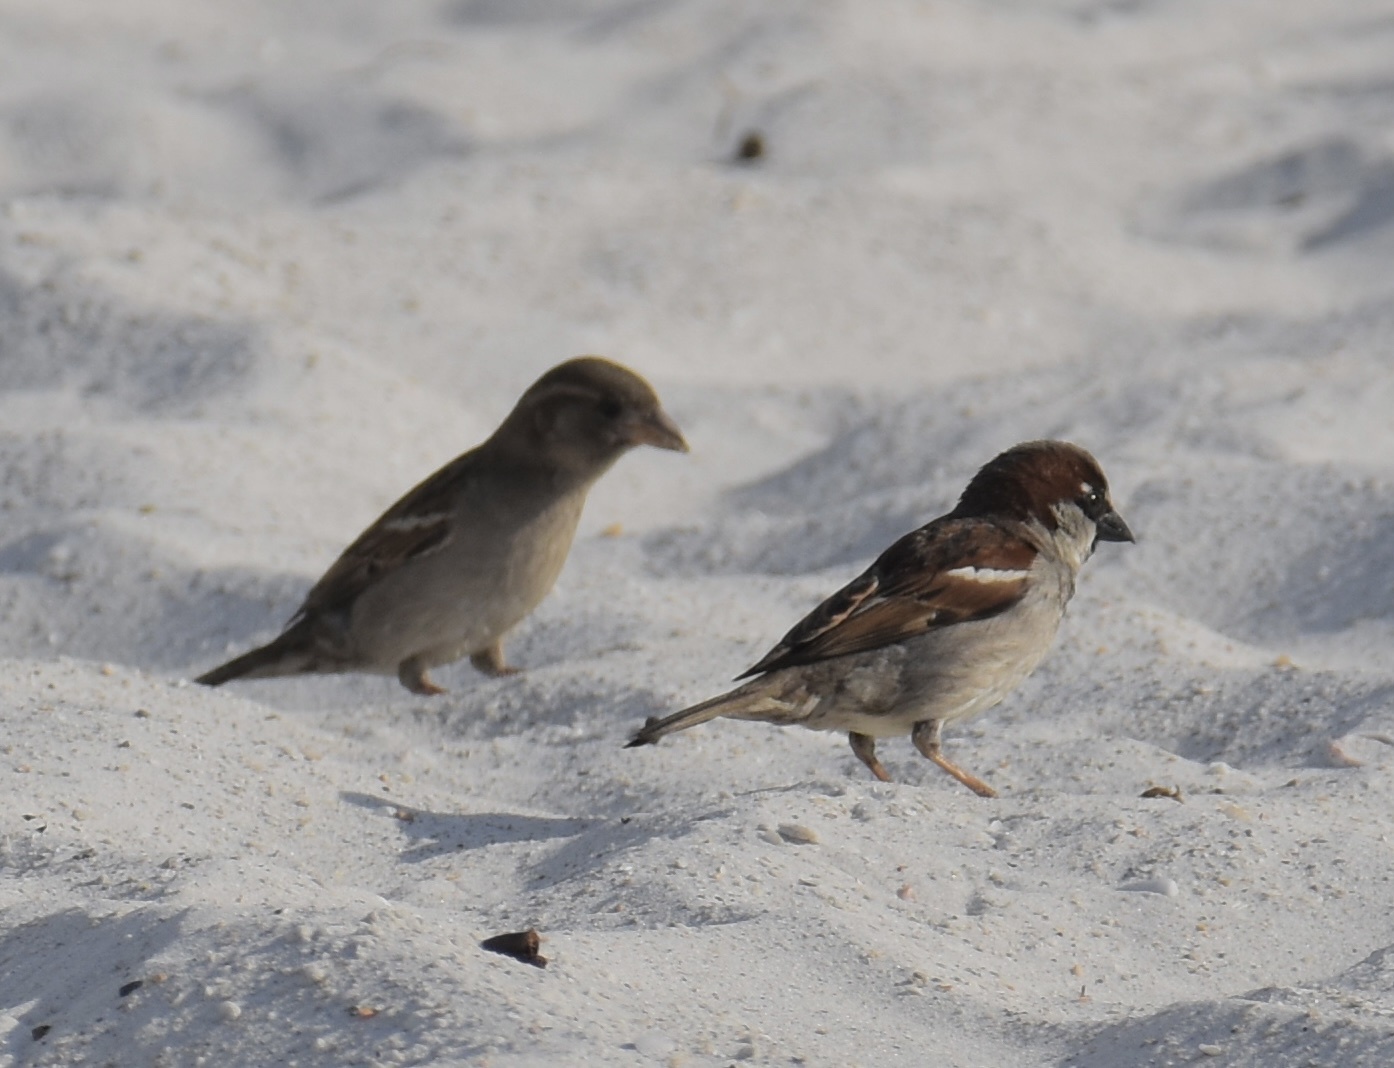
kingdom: Animalia
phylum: Chordata
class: Aves
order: Passeriformes
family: Passeridae
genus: Passer
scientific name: Passer domesticus
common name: House sparrow
